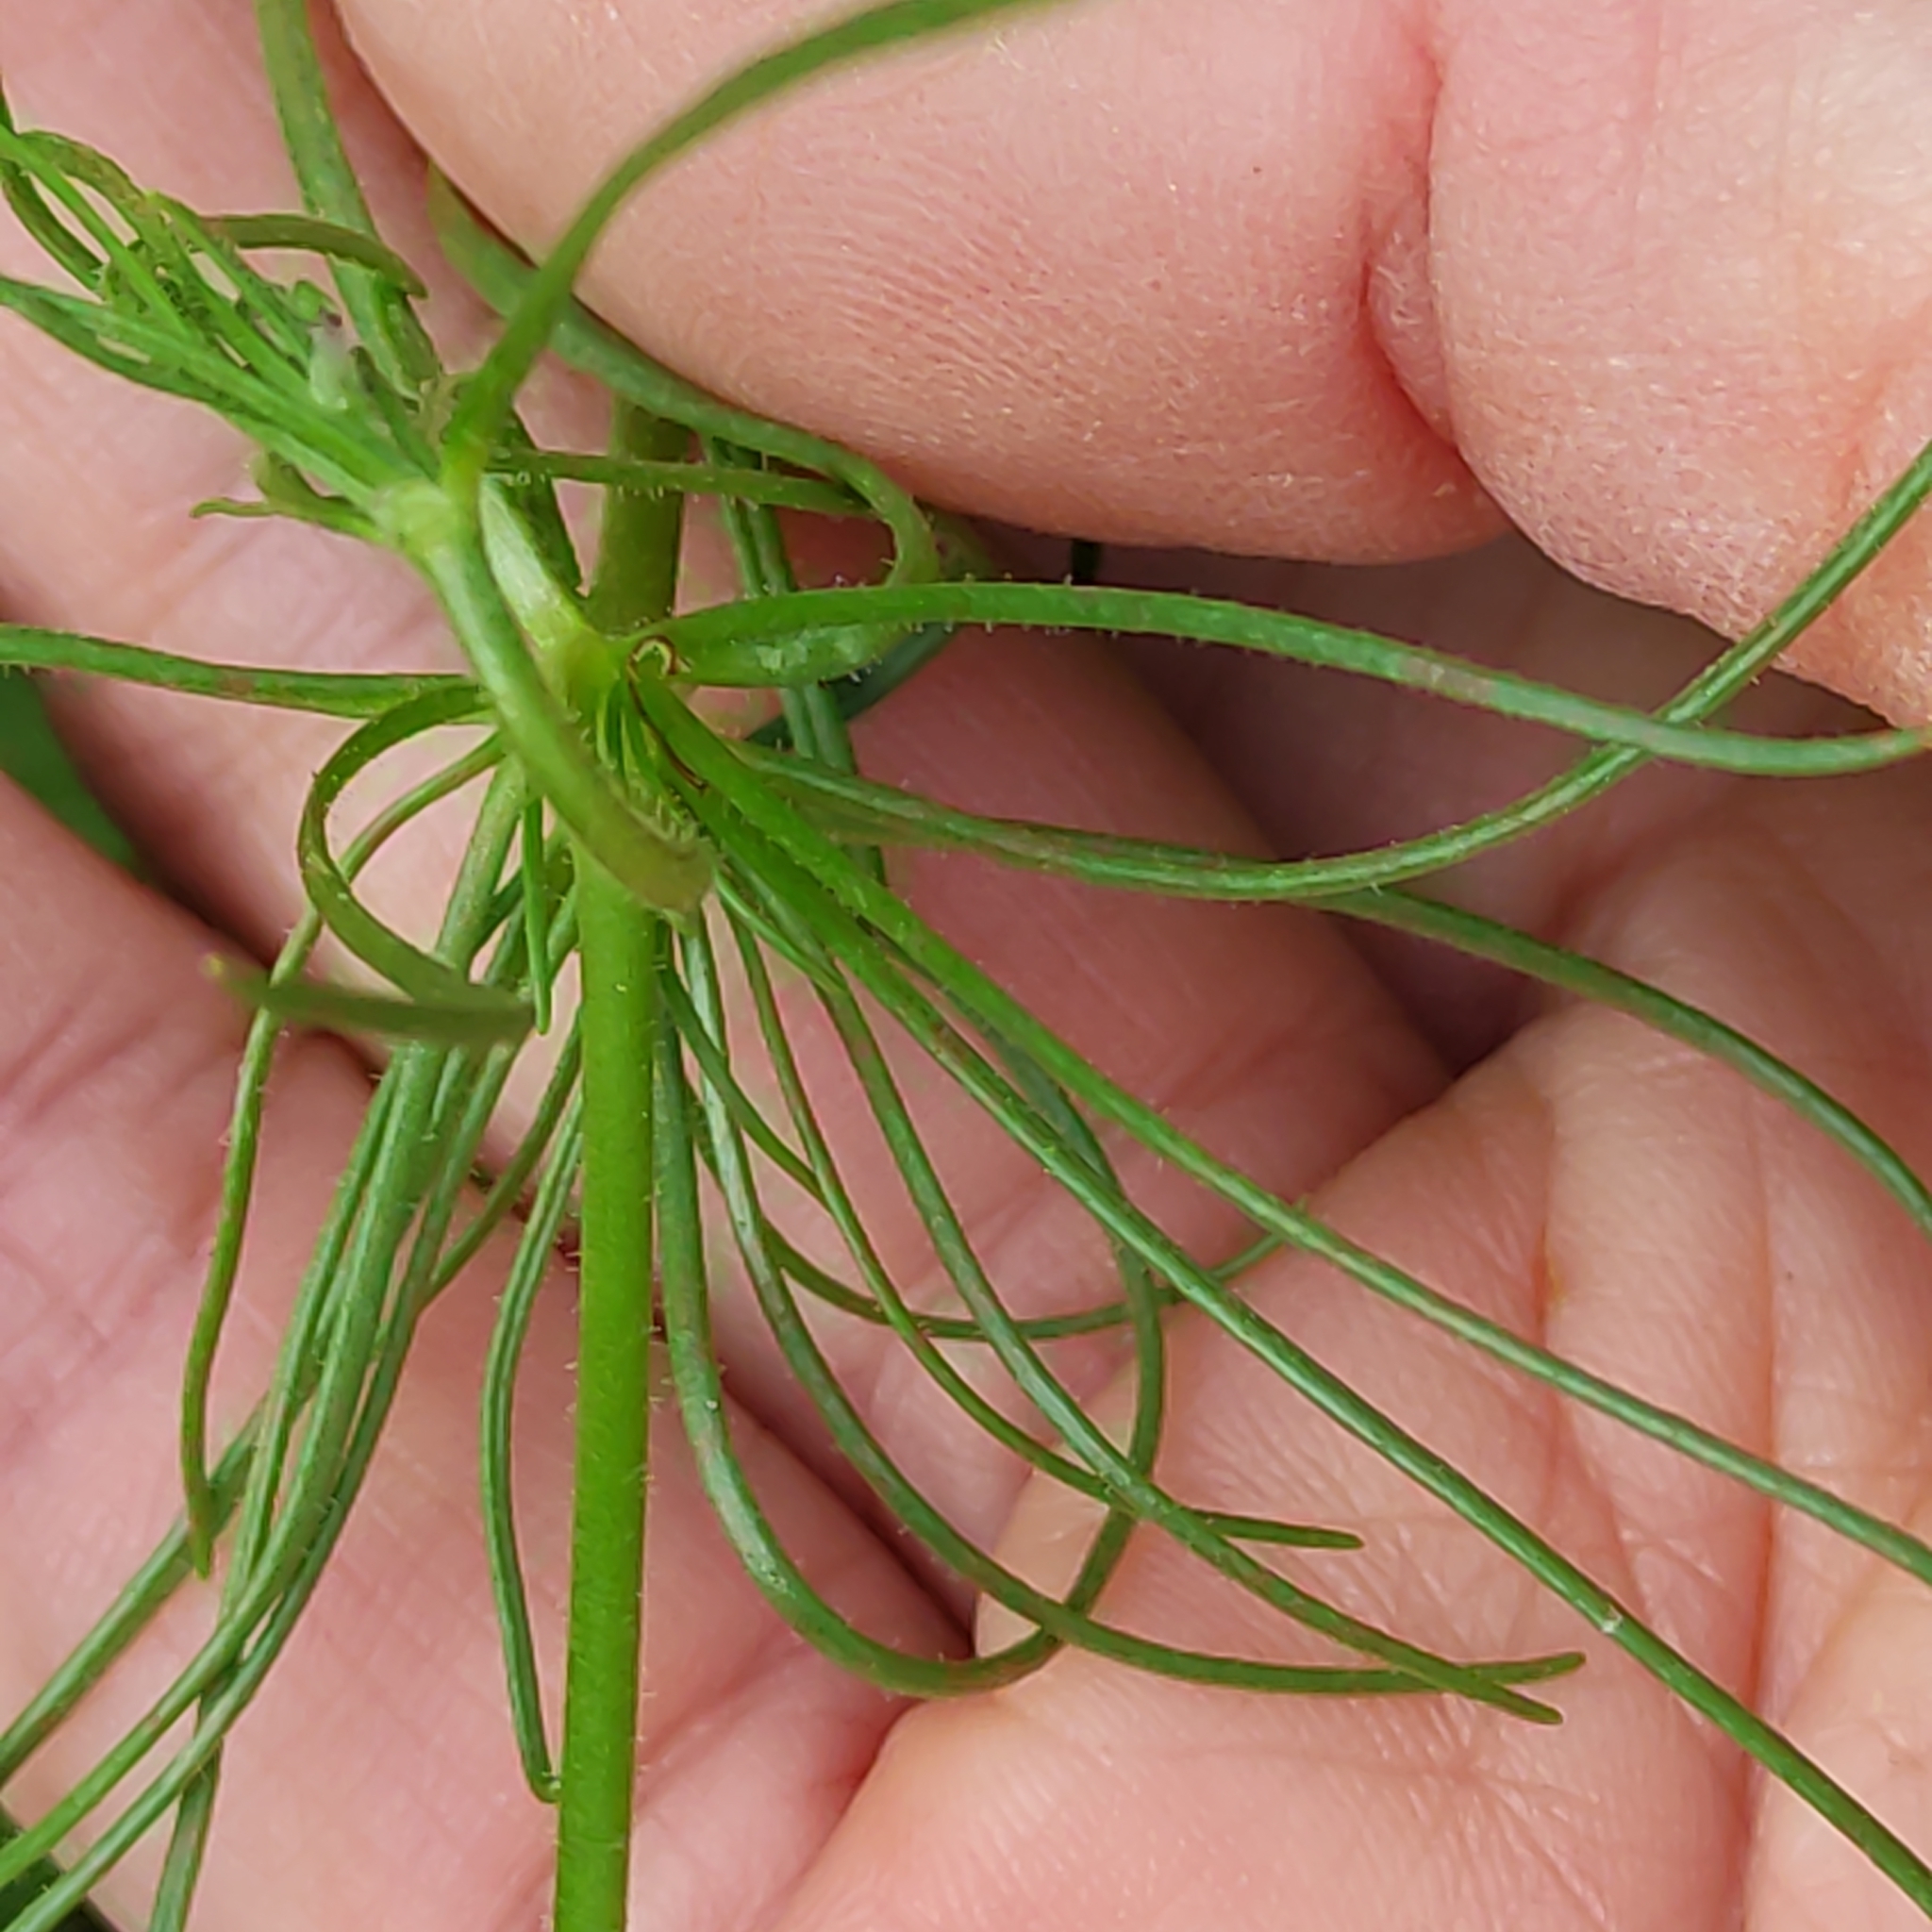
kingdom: Plantae
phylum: Tracheophyta
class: Magnoliopsida
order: Caryophyllales
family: Caryophyllaceae
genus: Spergula
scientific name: Spergula arvensis
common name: Corn spurrey
